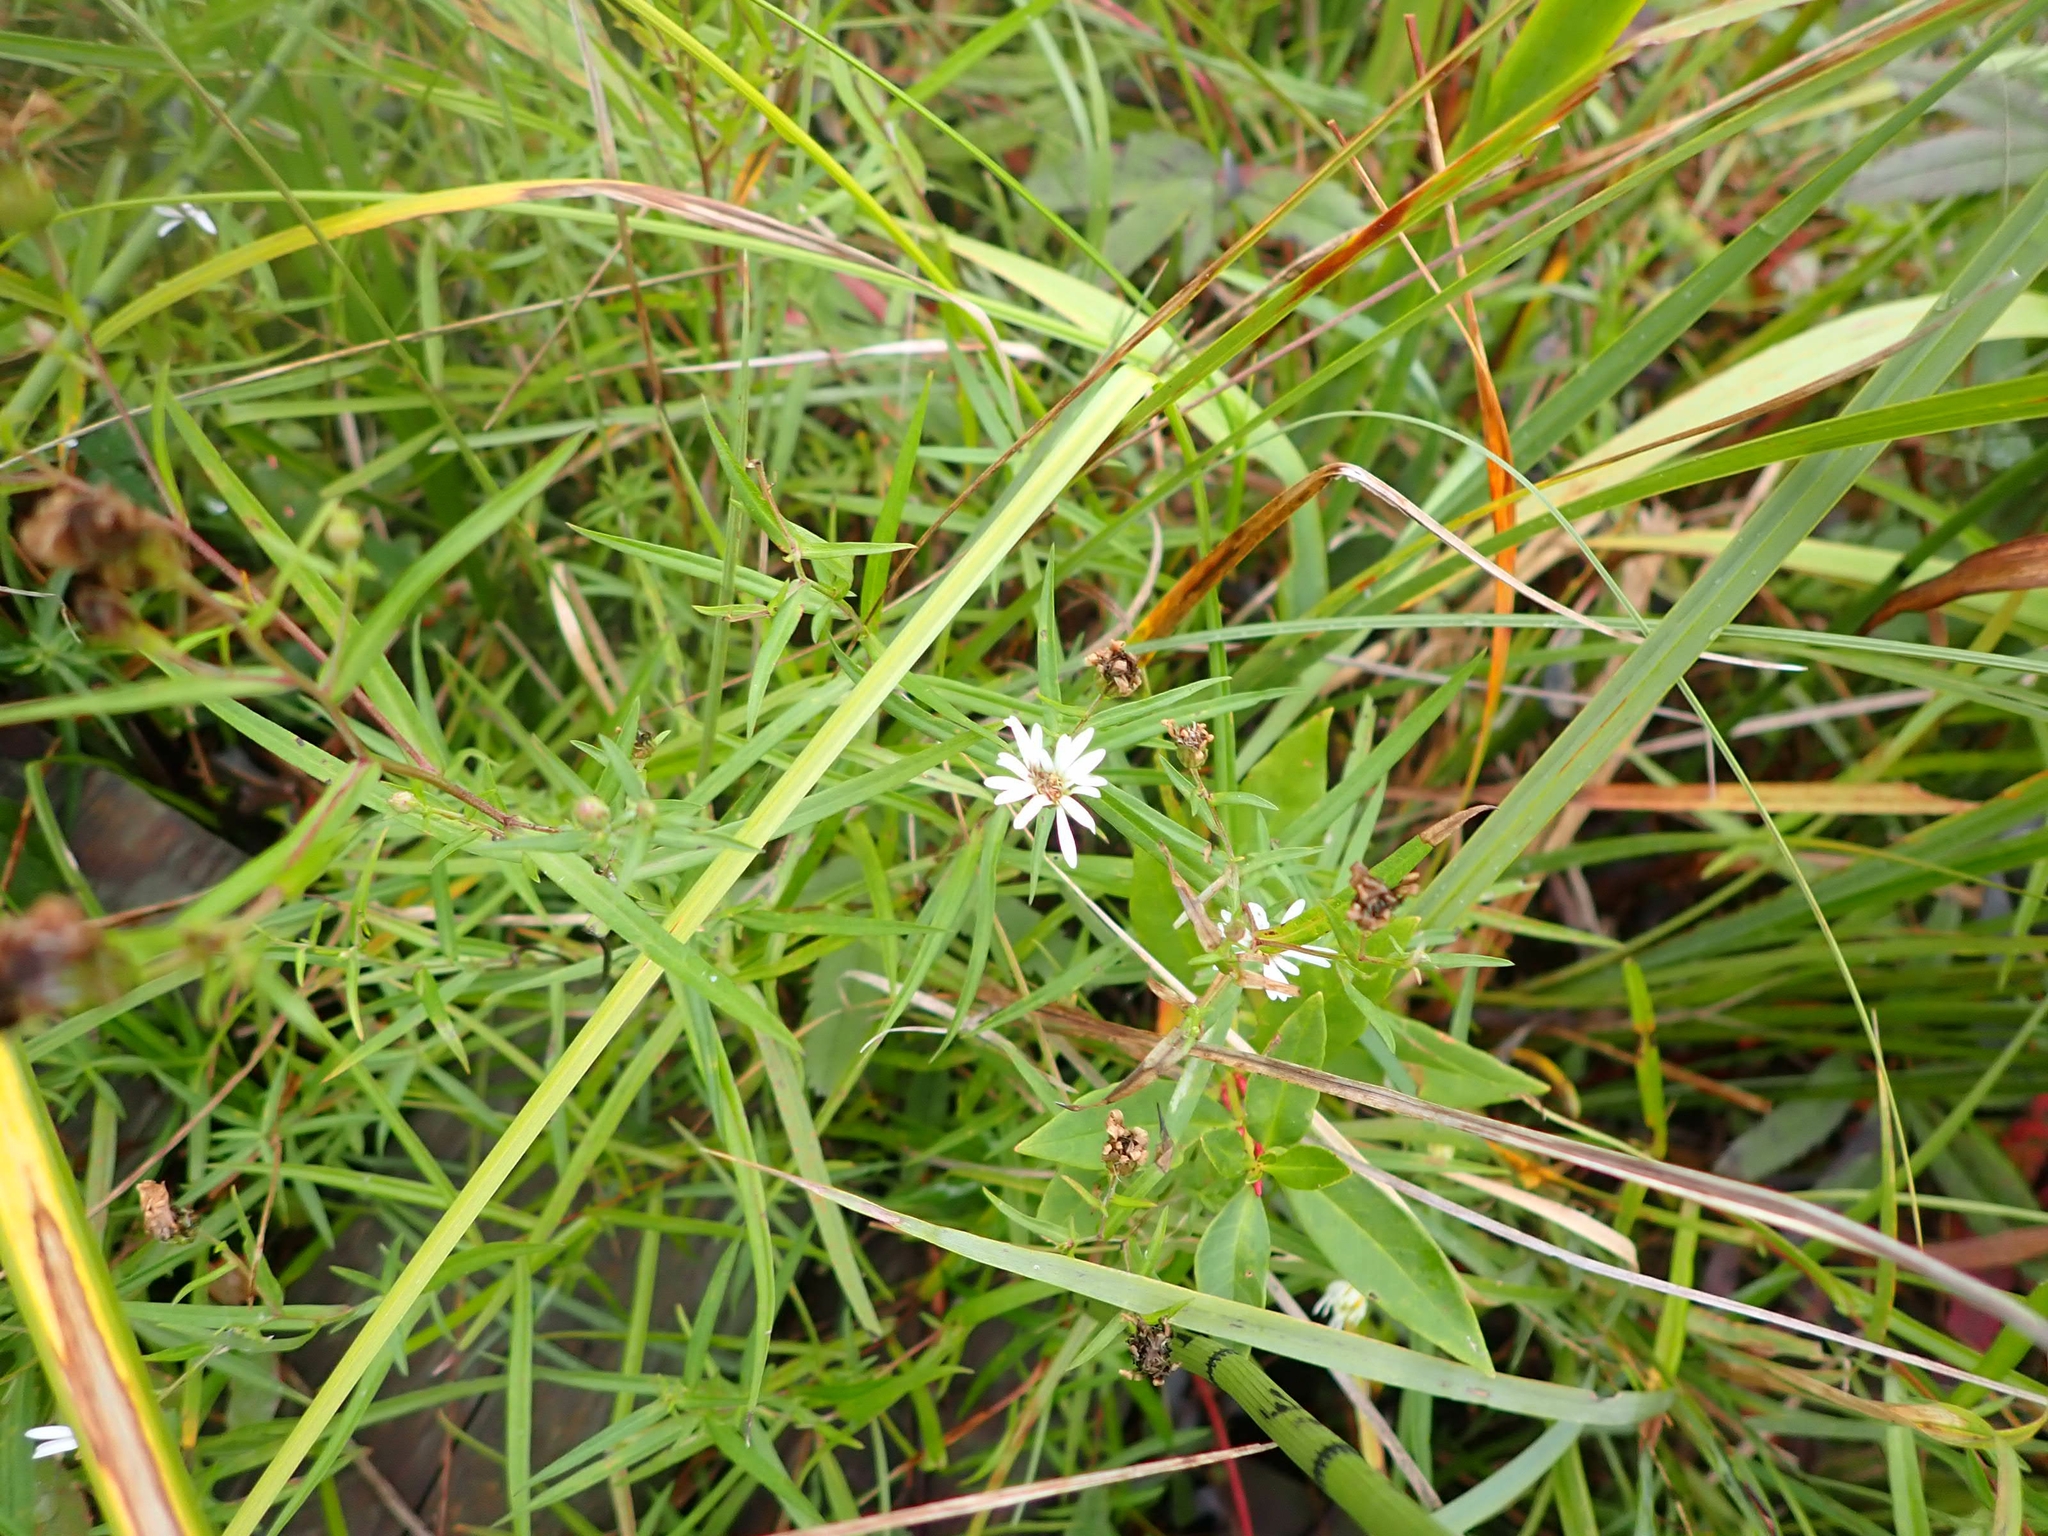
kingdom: Plantae
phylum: Tracheophyta
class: Magnoliopsida
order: Asterales
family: Asteraceae
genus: Symphyotrichum
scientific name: Symphyotrichum boreale
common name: Northern bog aster
